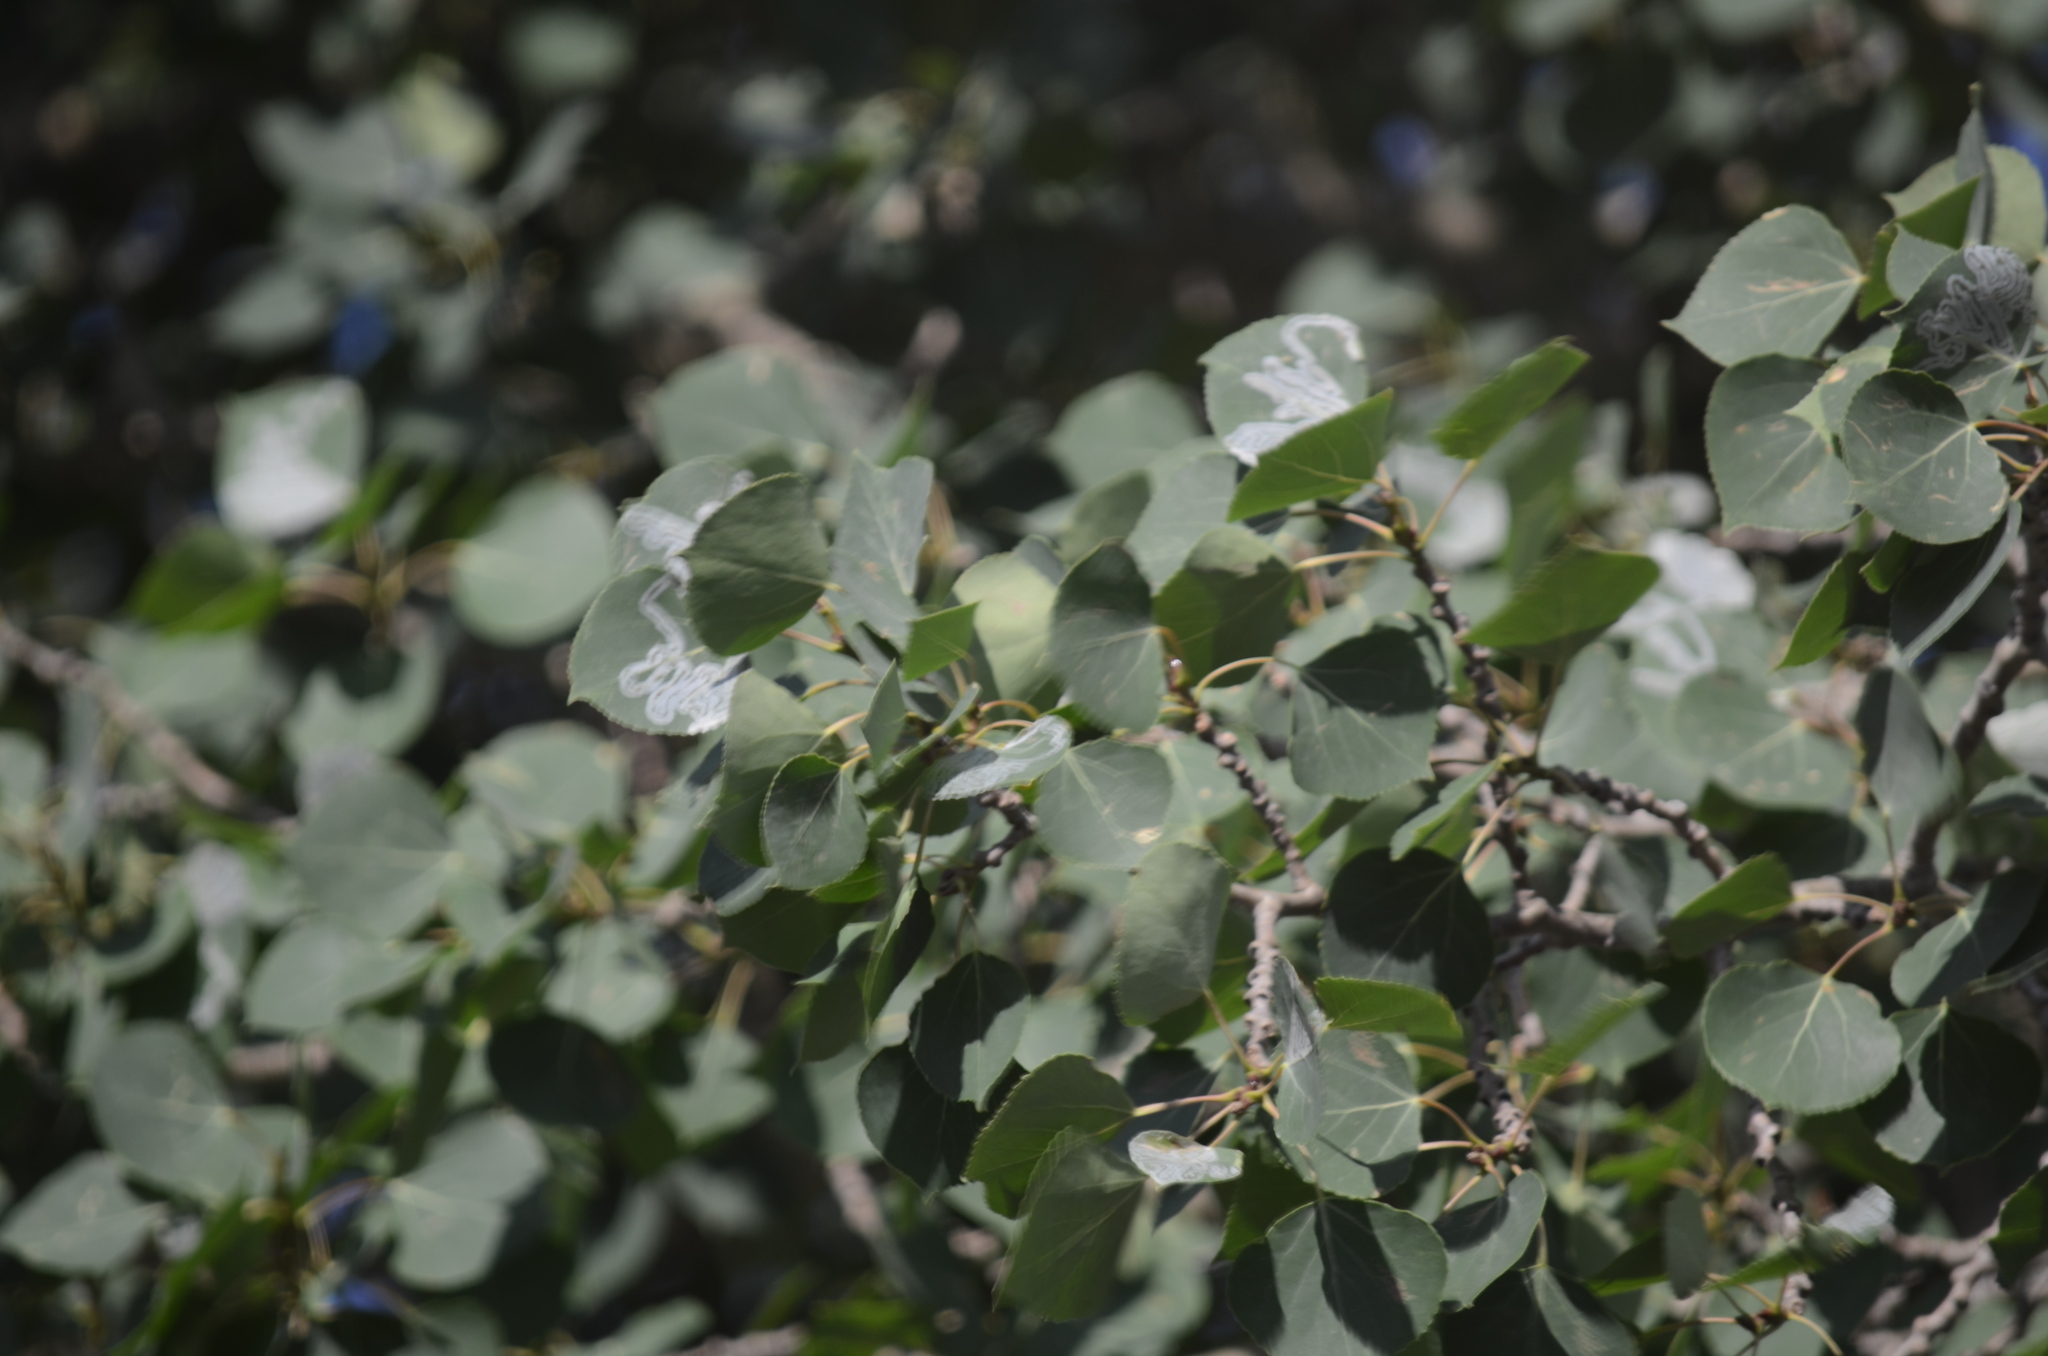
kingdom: Animalia
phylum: Arthropoda
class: Insecta
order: Lepidoptera
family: Gracillariidae
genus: Phyllocnistis
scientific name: Phyllocnistis populiella
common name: Aspen serpentine leafminer moth
